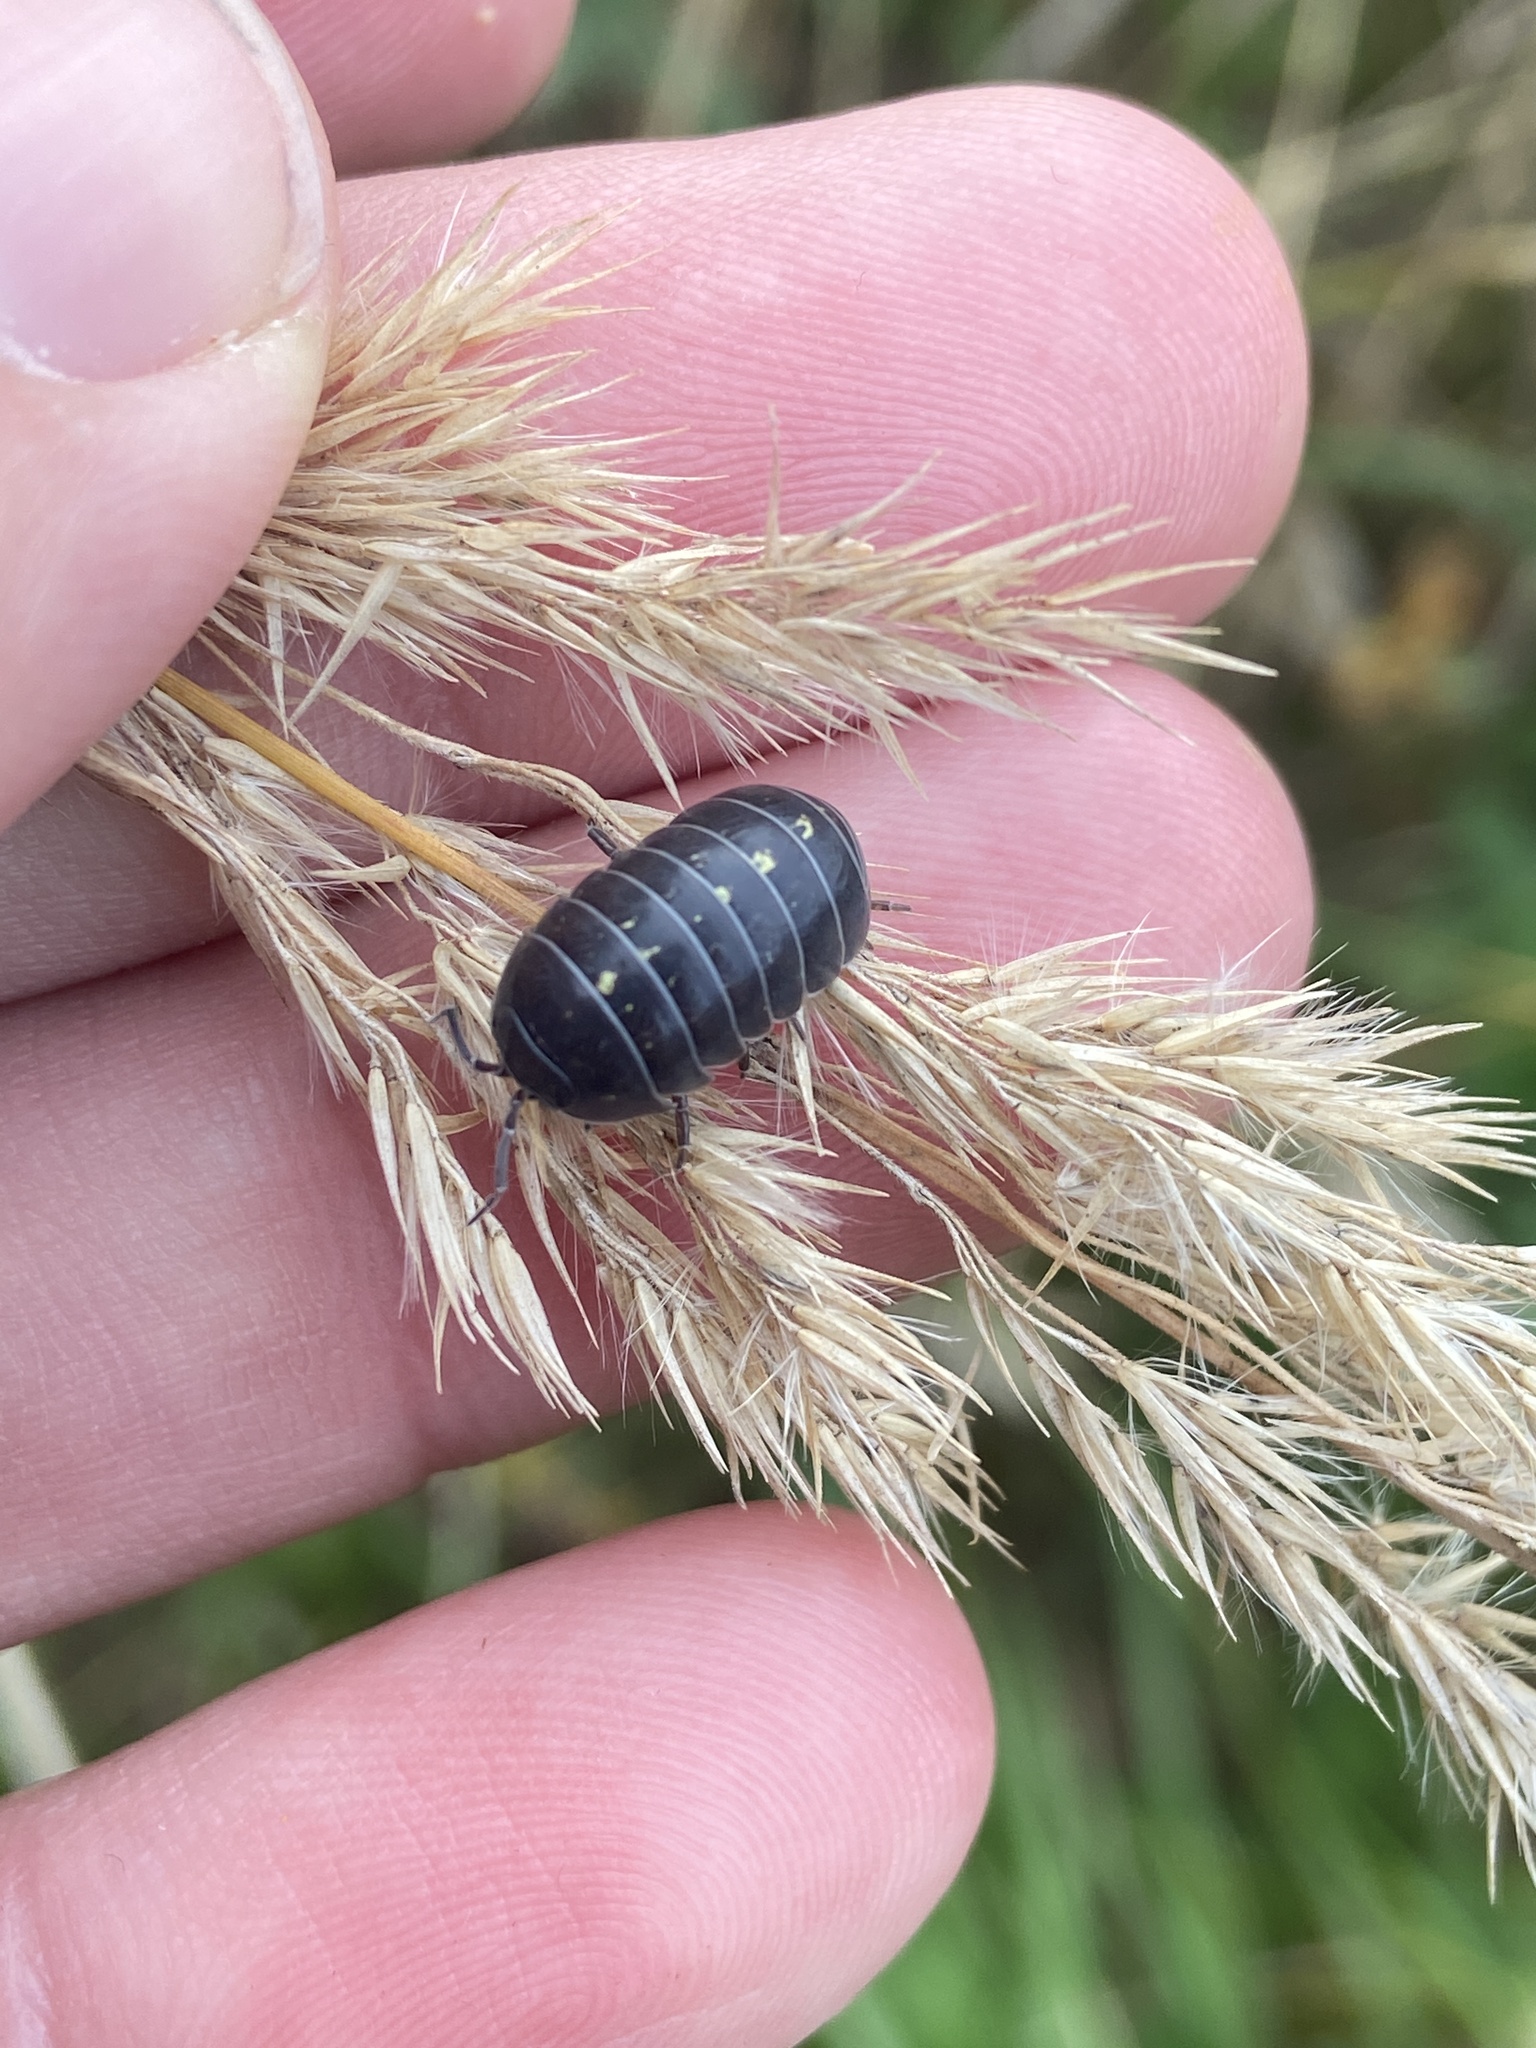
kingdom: Animalia
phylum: Arthropoda
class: Malacostraca
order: Isopoda
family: Armadillidiidae
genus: Armadillidium
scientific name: Armadillidium vulgare
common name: Common pill woodlouse
